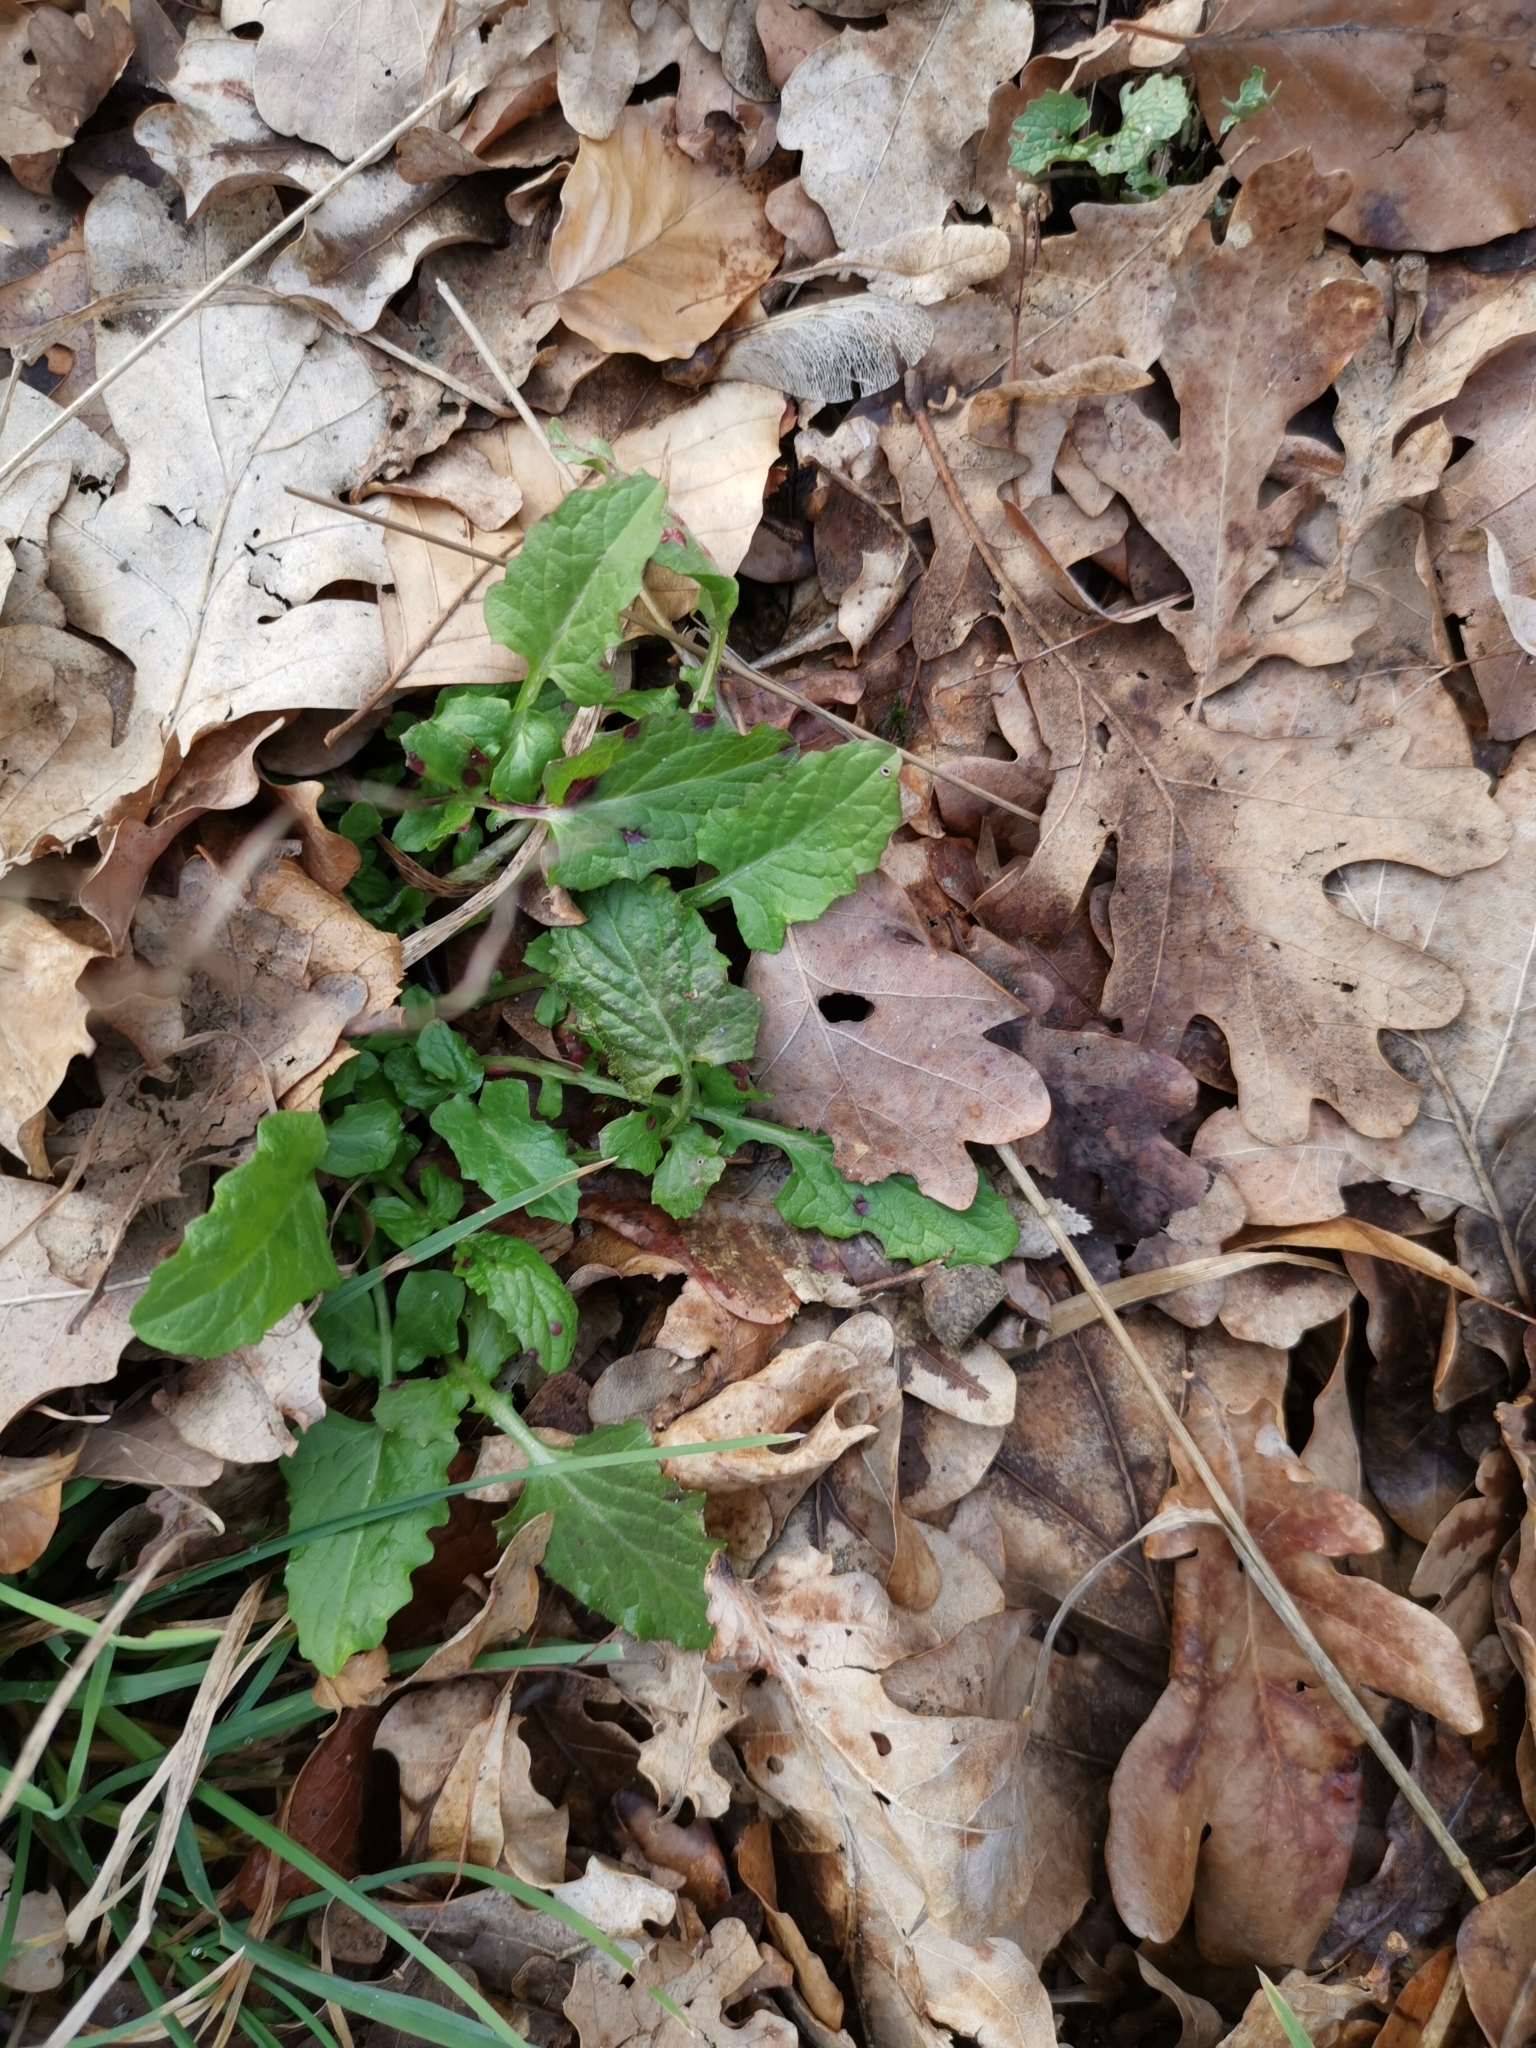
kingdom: Plantae
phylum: Tracheophyta
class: Magnoliopsida
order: Asterales
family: Asteraceae
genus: Lapsana
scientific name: Lapsana communis
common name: Nipplewort
